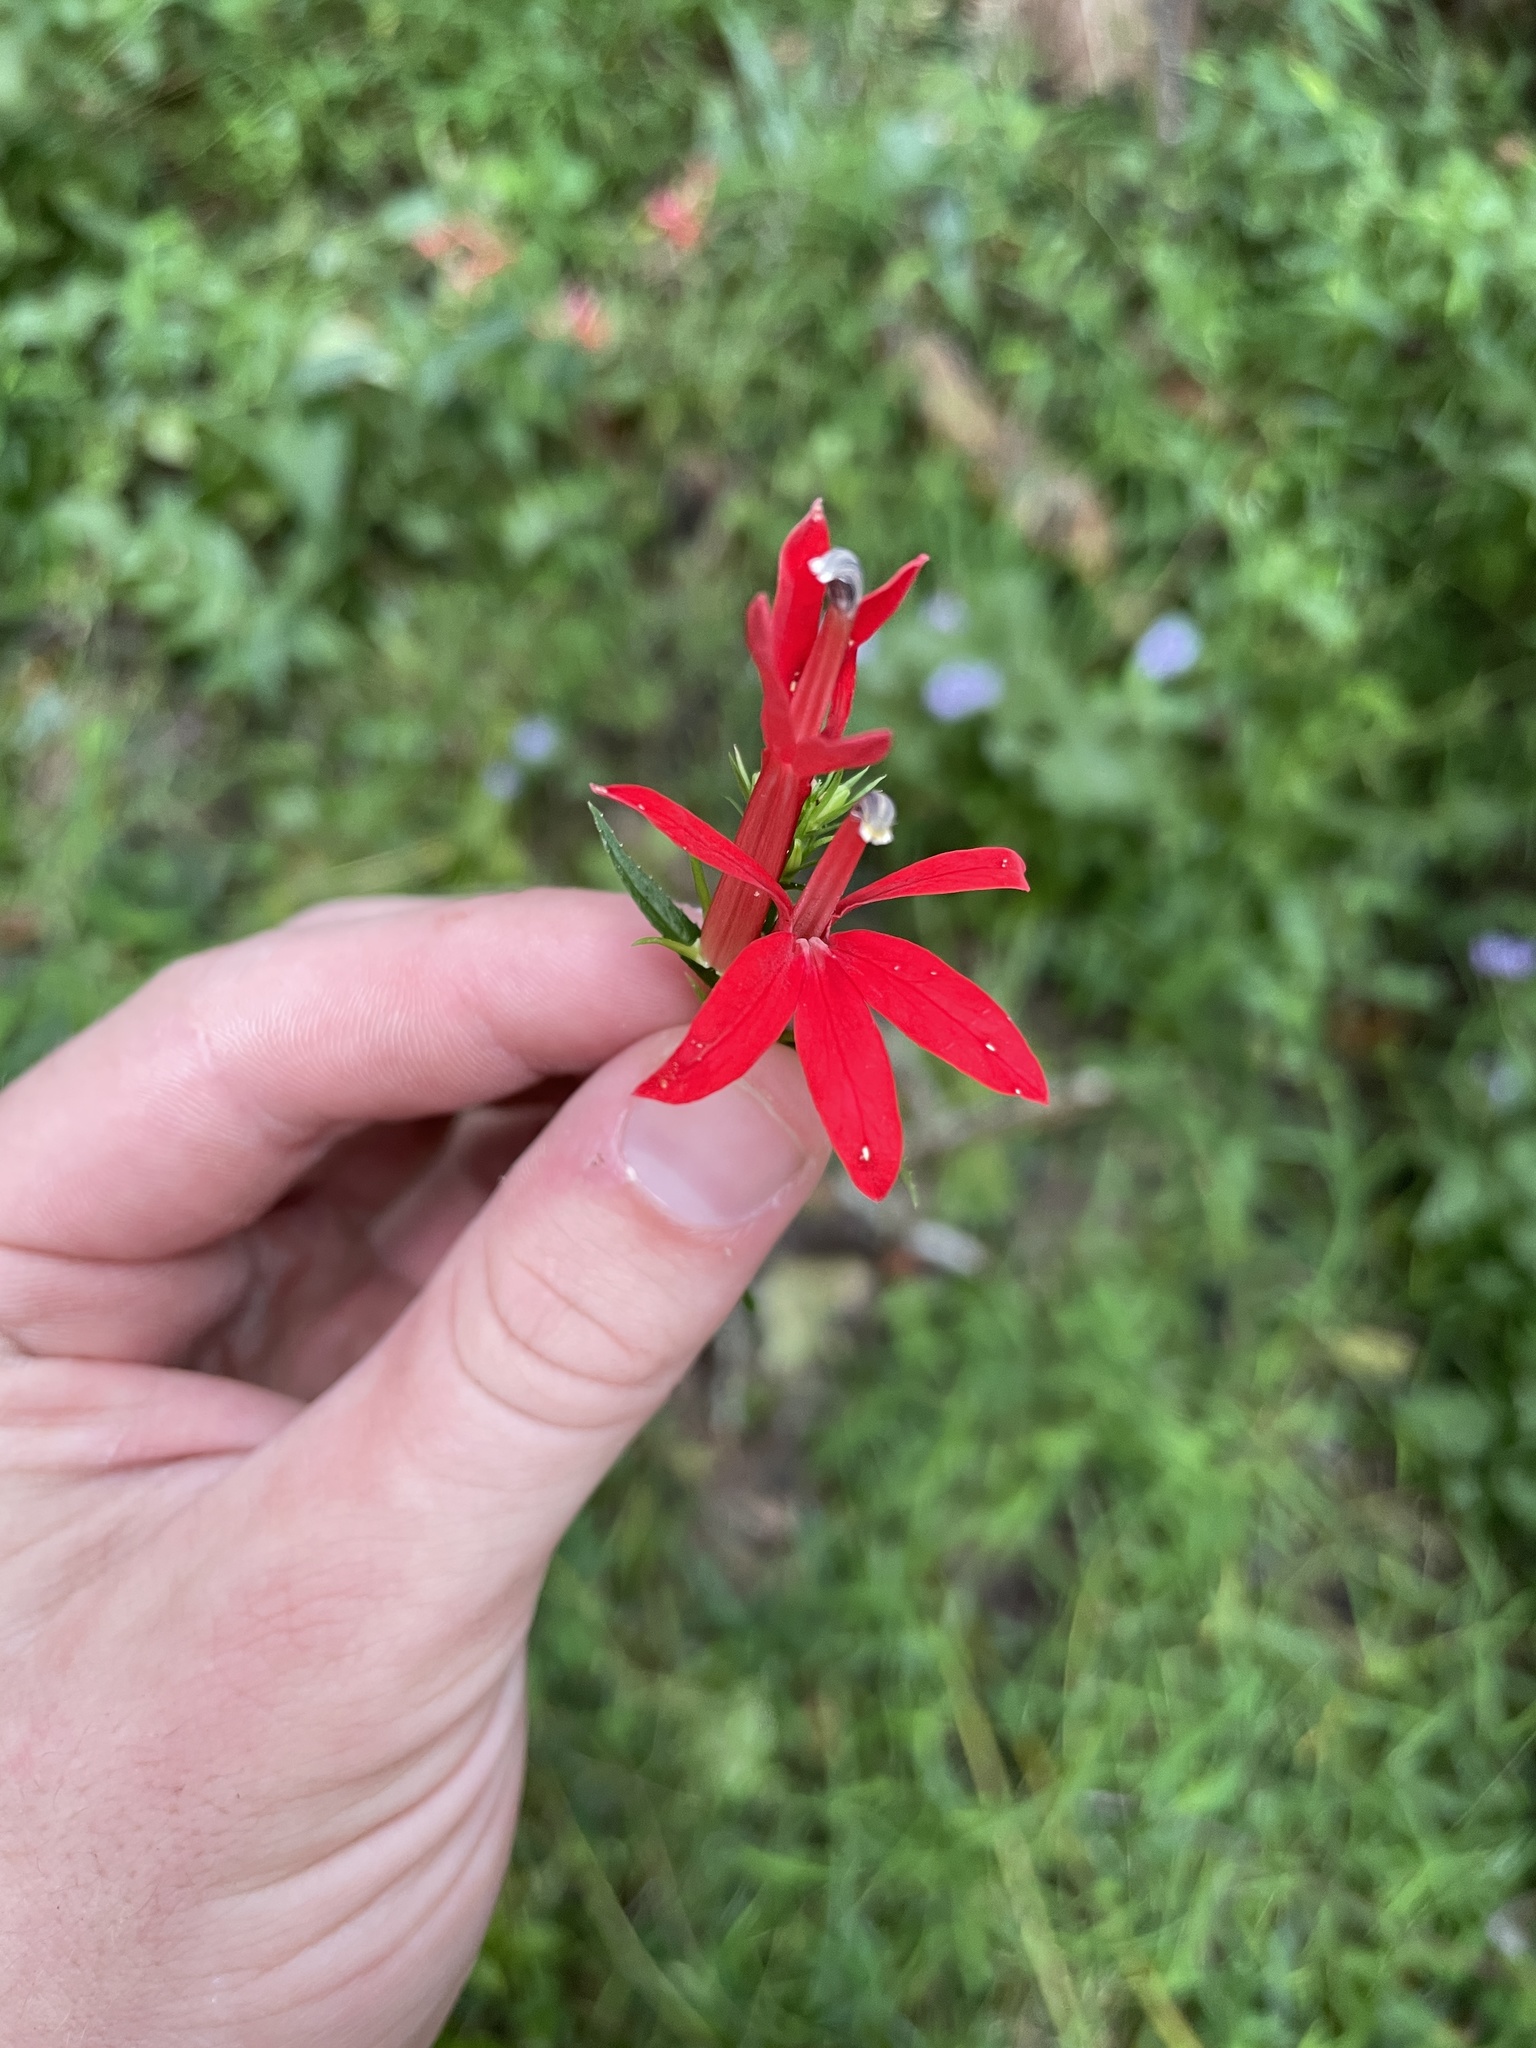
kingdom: Plantae
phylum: Tracheophyta
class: Magnoliopsida
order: Asterales
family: Campanulaceae
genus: Lobelia
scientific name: Lobelia cardinalis
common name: Cardinal flower
